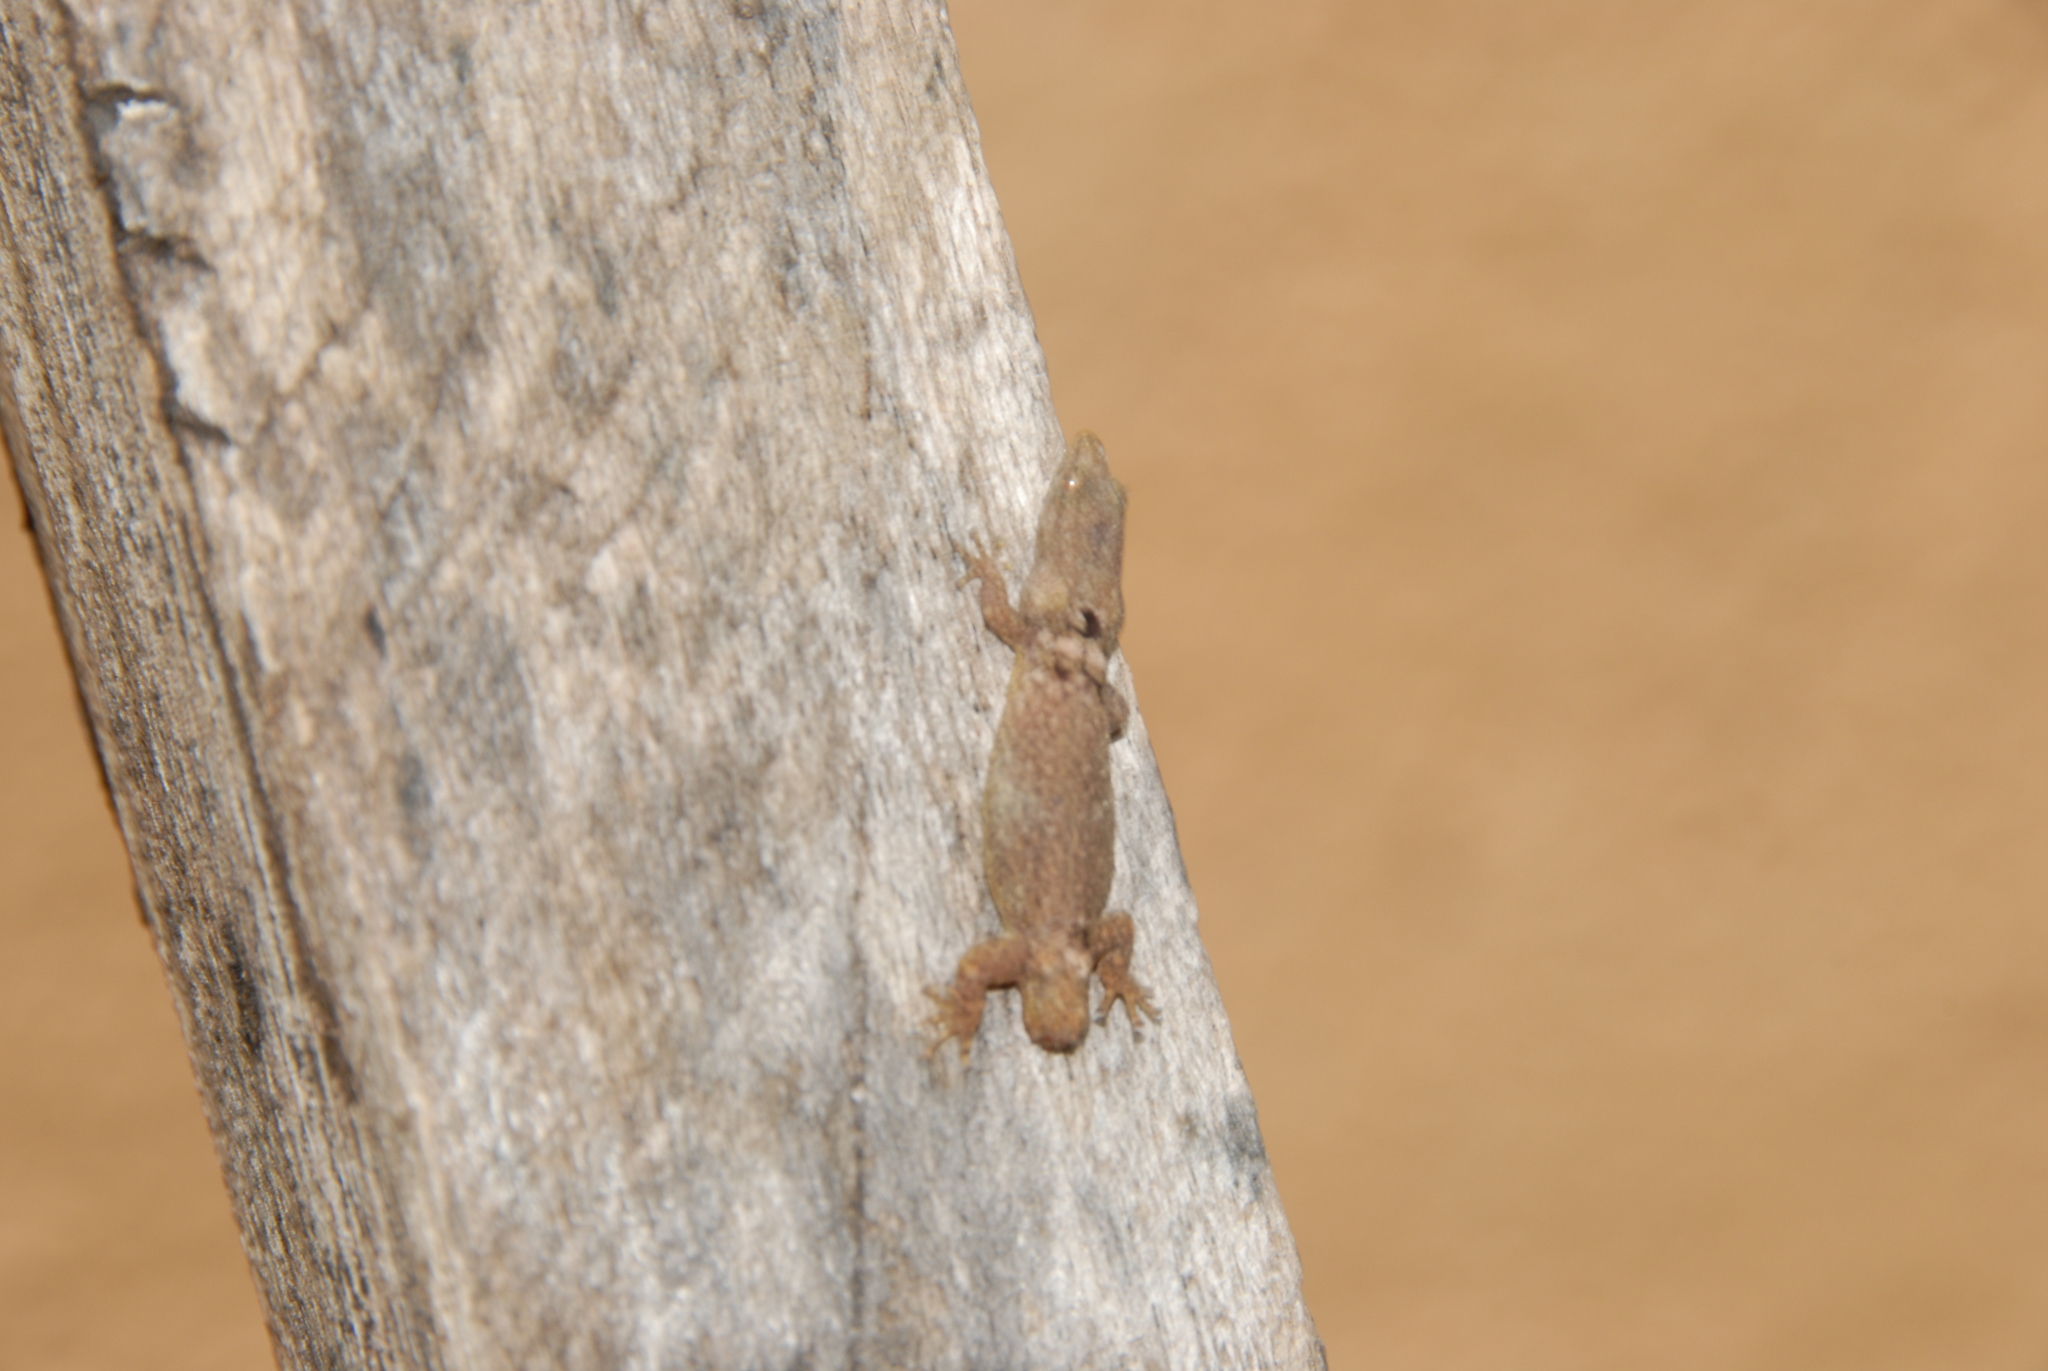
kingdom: Animalia
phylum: Chordata
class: Squamata
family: Sphaerodactylidae
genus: Sphaerodactylus
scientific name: Sphaerodactylus glaucus
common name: Central american collared geckolet
